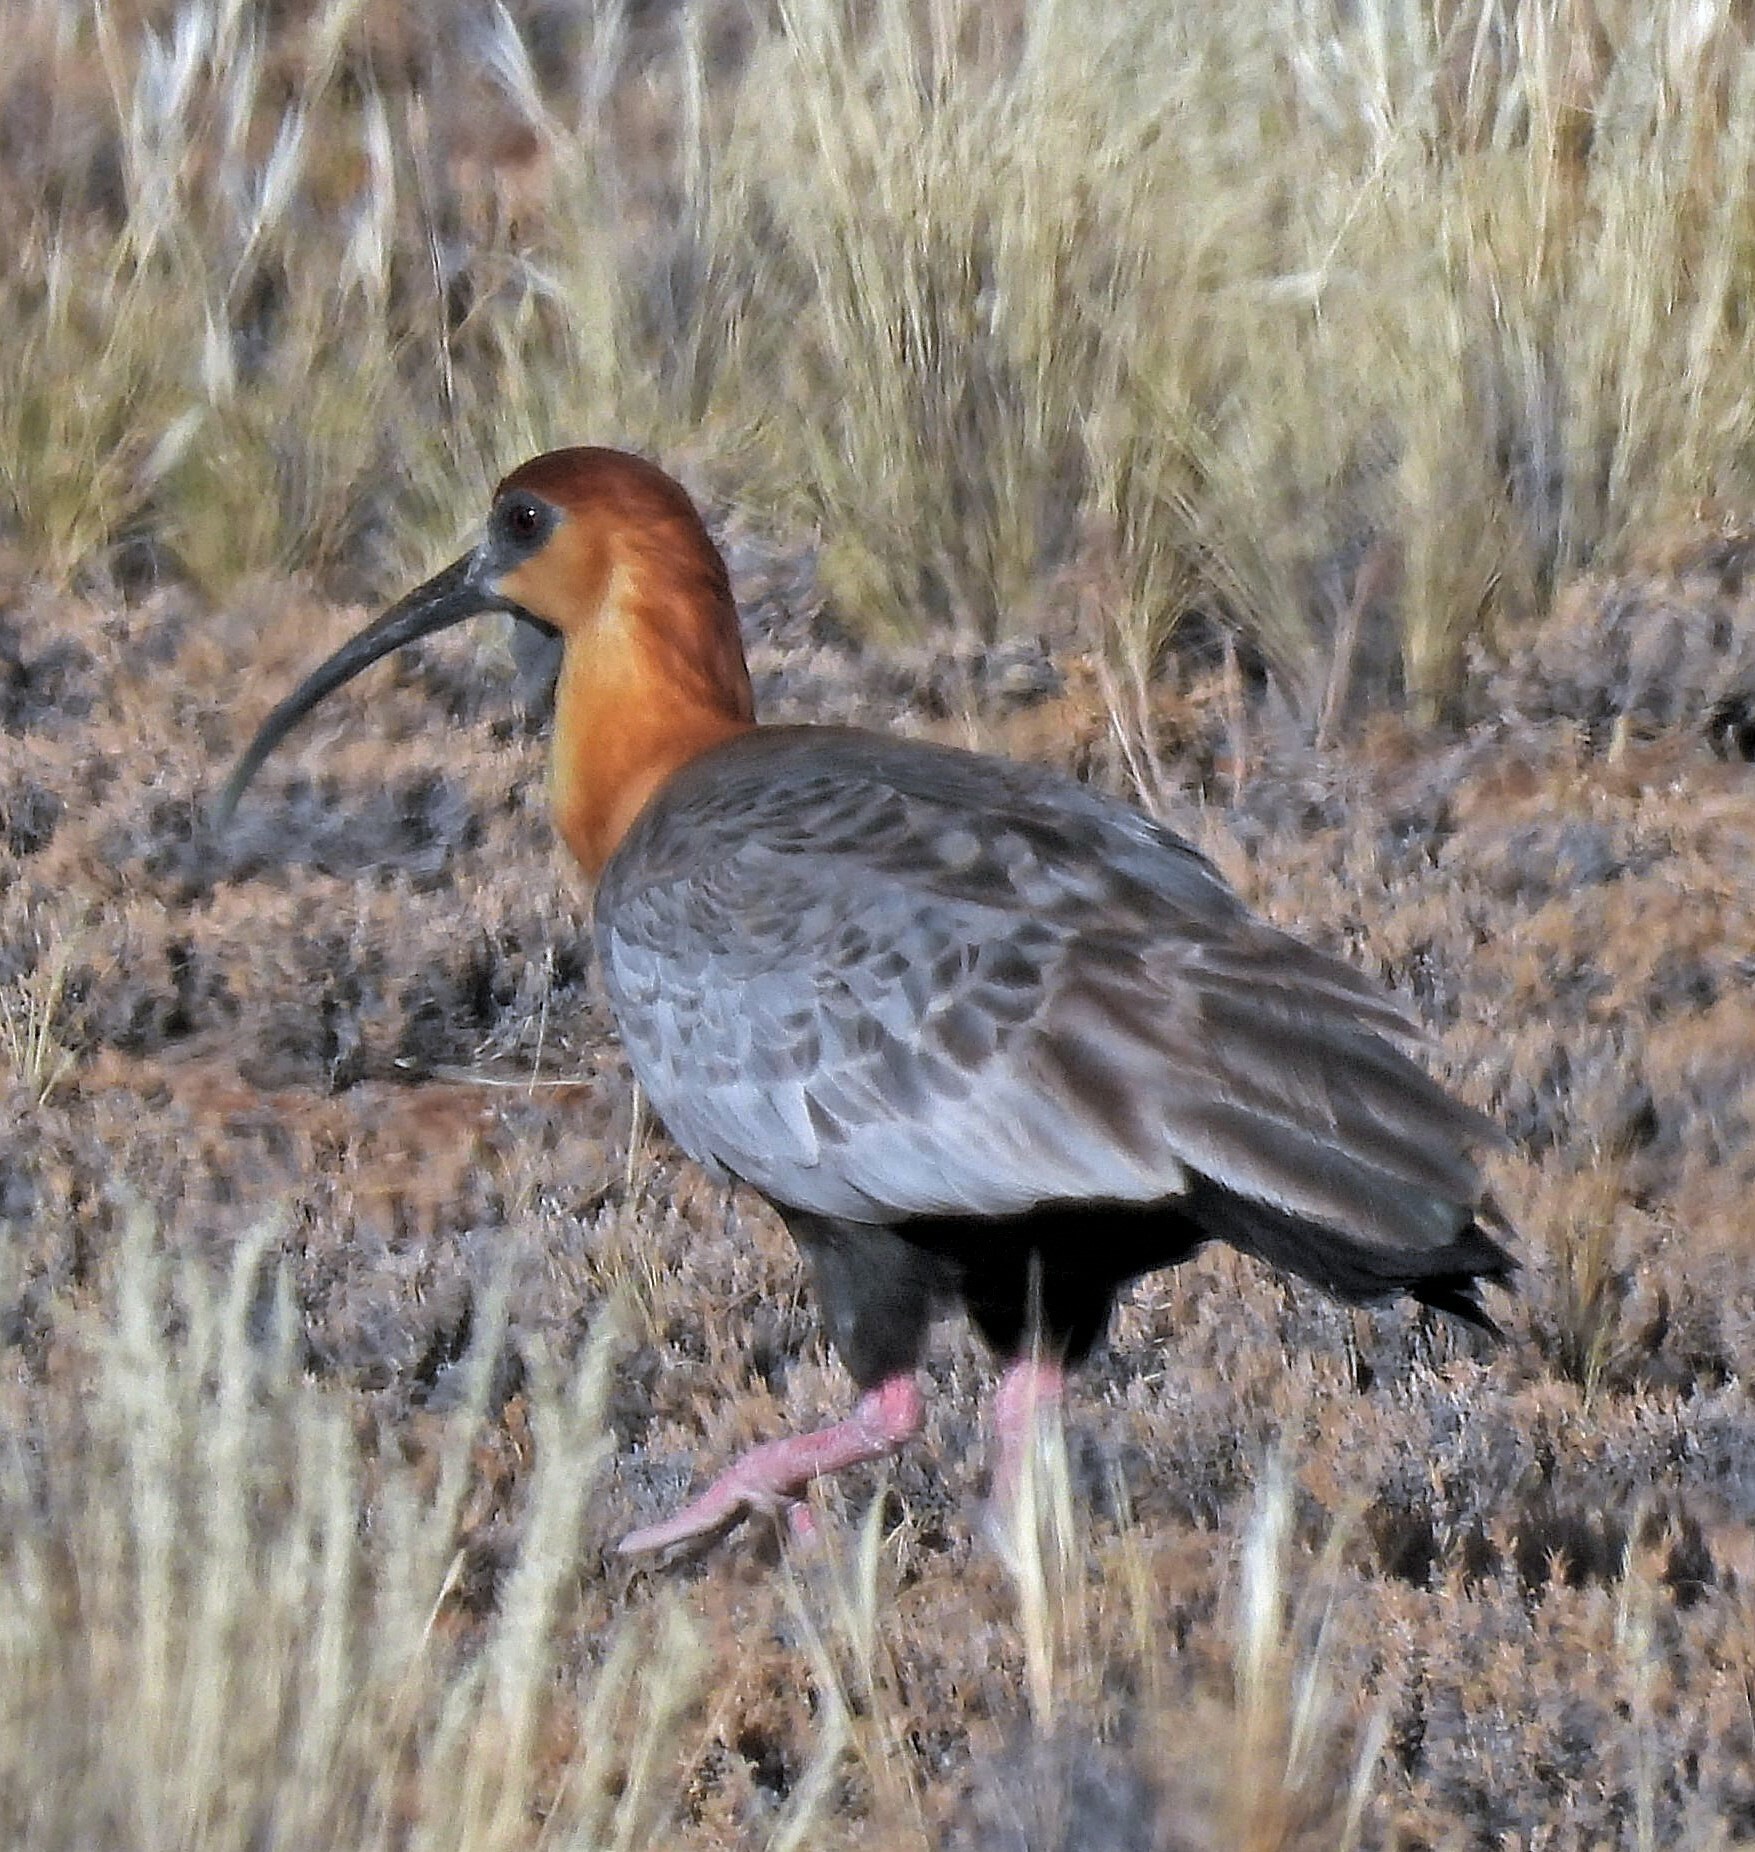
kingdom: Animalia
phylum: Chordata
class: Aves
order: Pelecaniformes
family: Threskiornithidae
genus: Theristicus
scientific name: Theristicus melanopis
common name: Black-faced ibis
